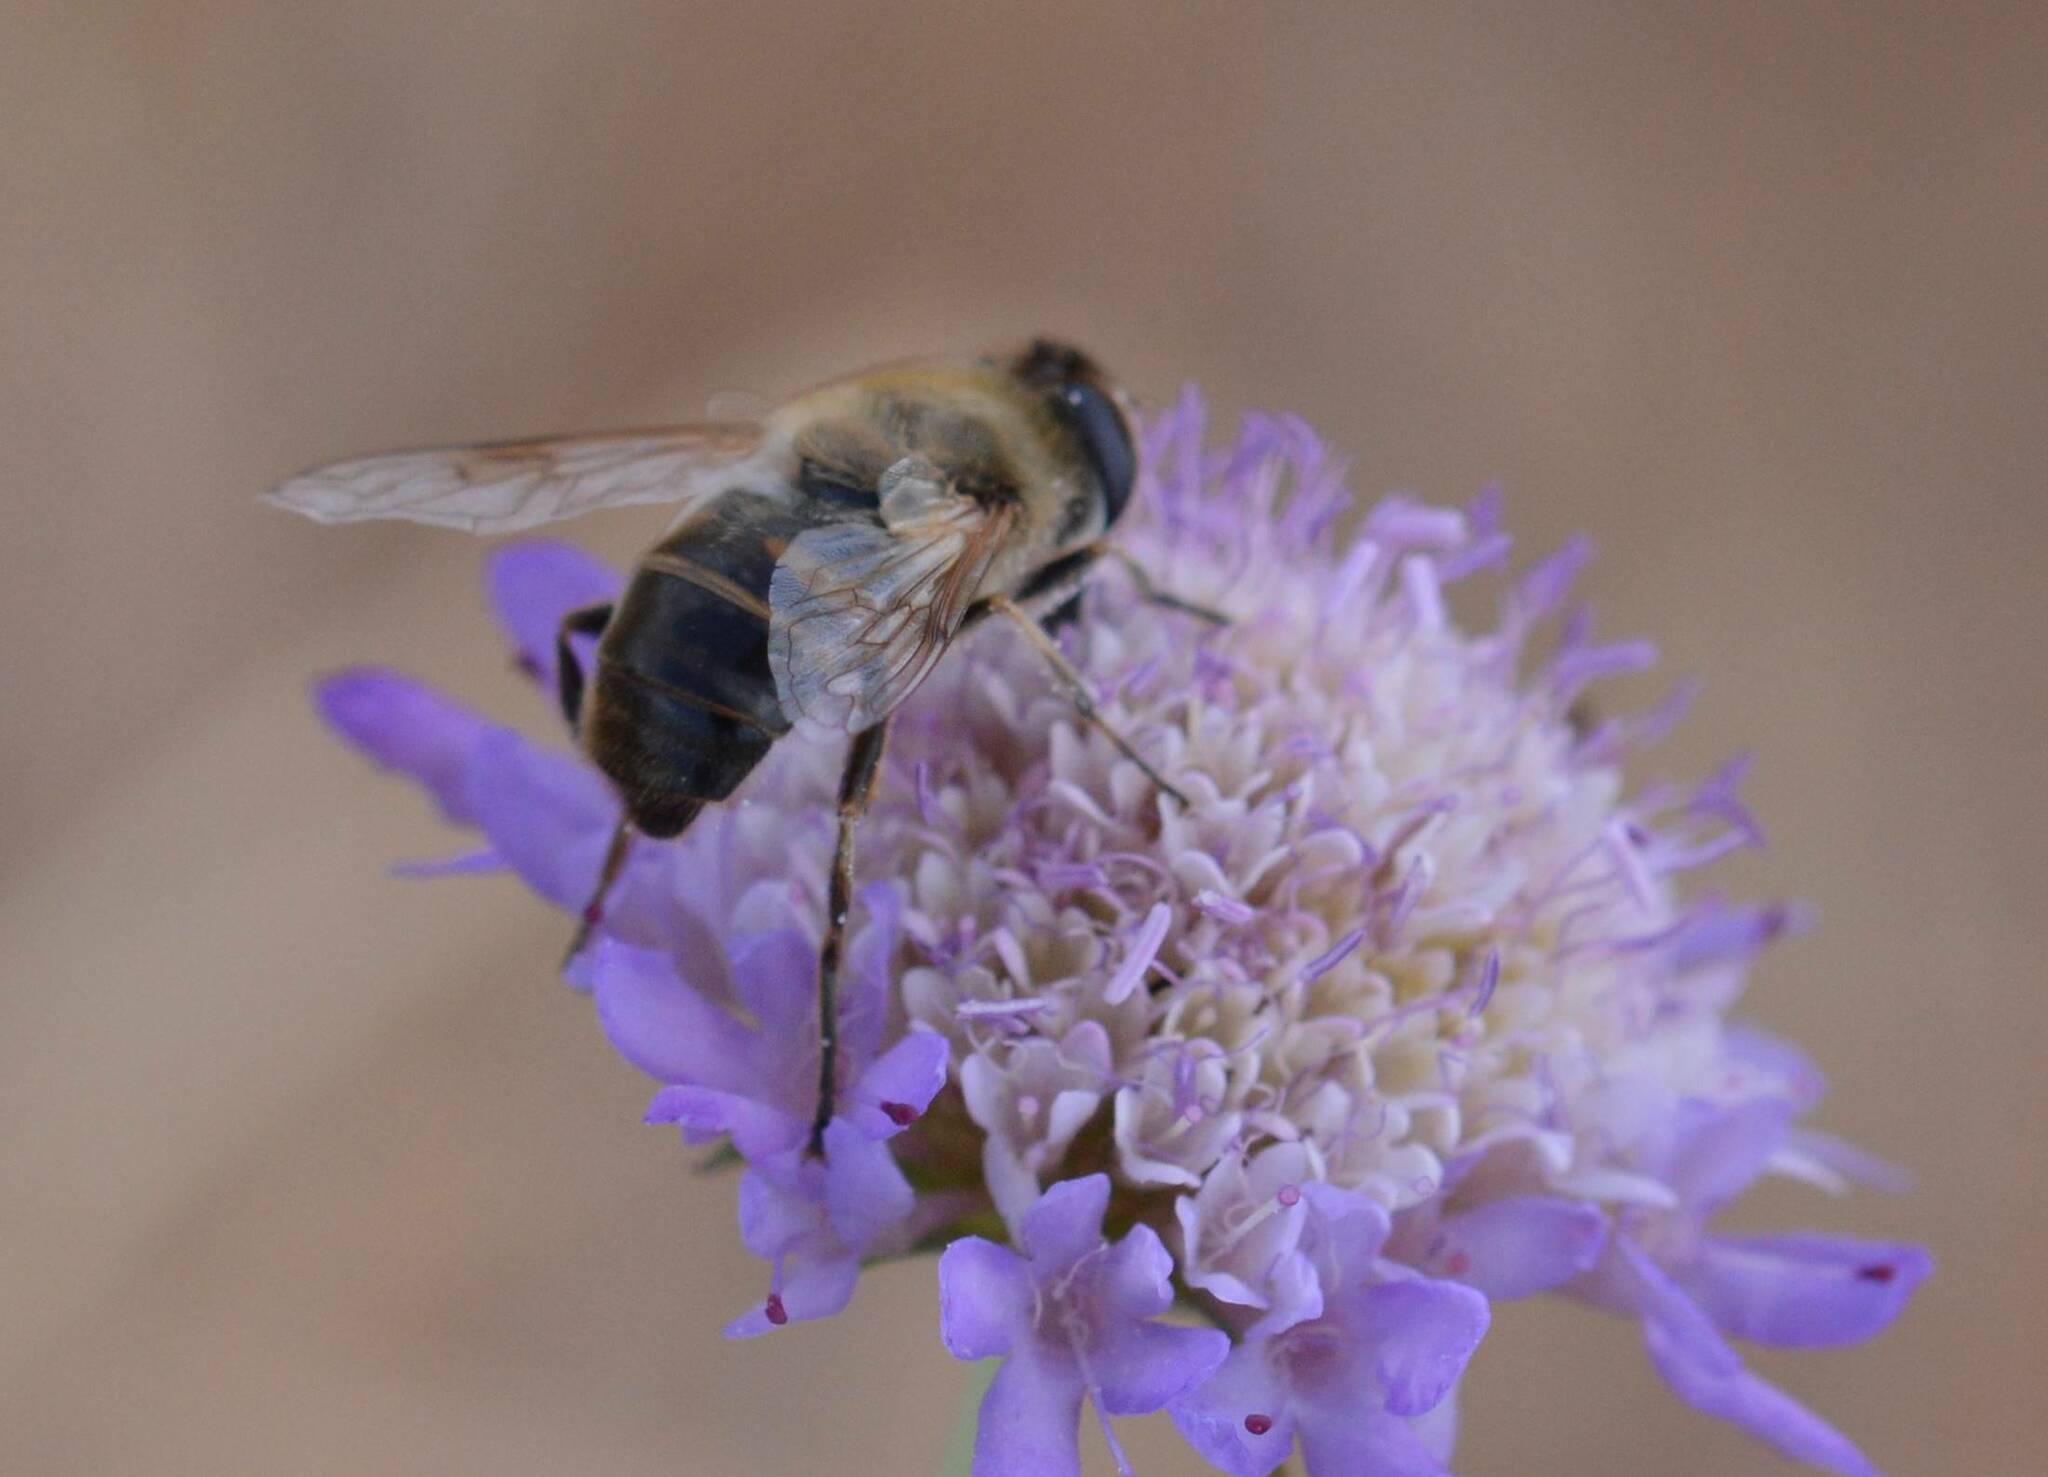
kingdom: Animalia
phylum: Arthropoda
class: Insecta
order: Diptera
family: Syrphidae
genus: Eristalis
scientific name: Eristalis tenax
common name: Drone fly
